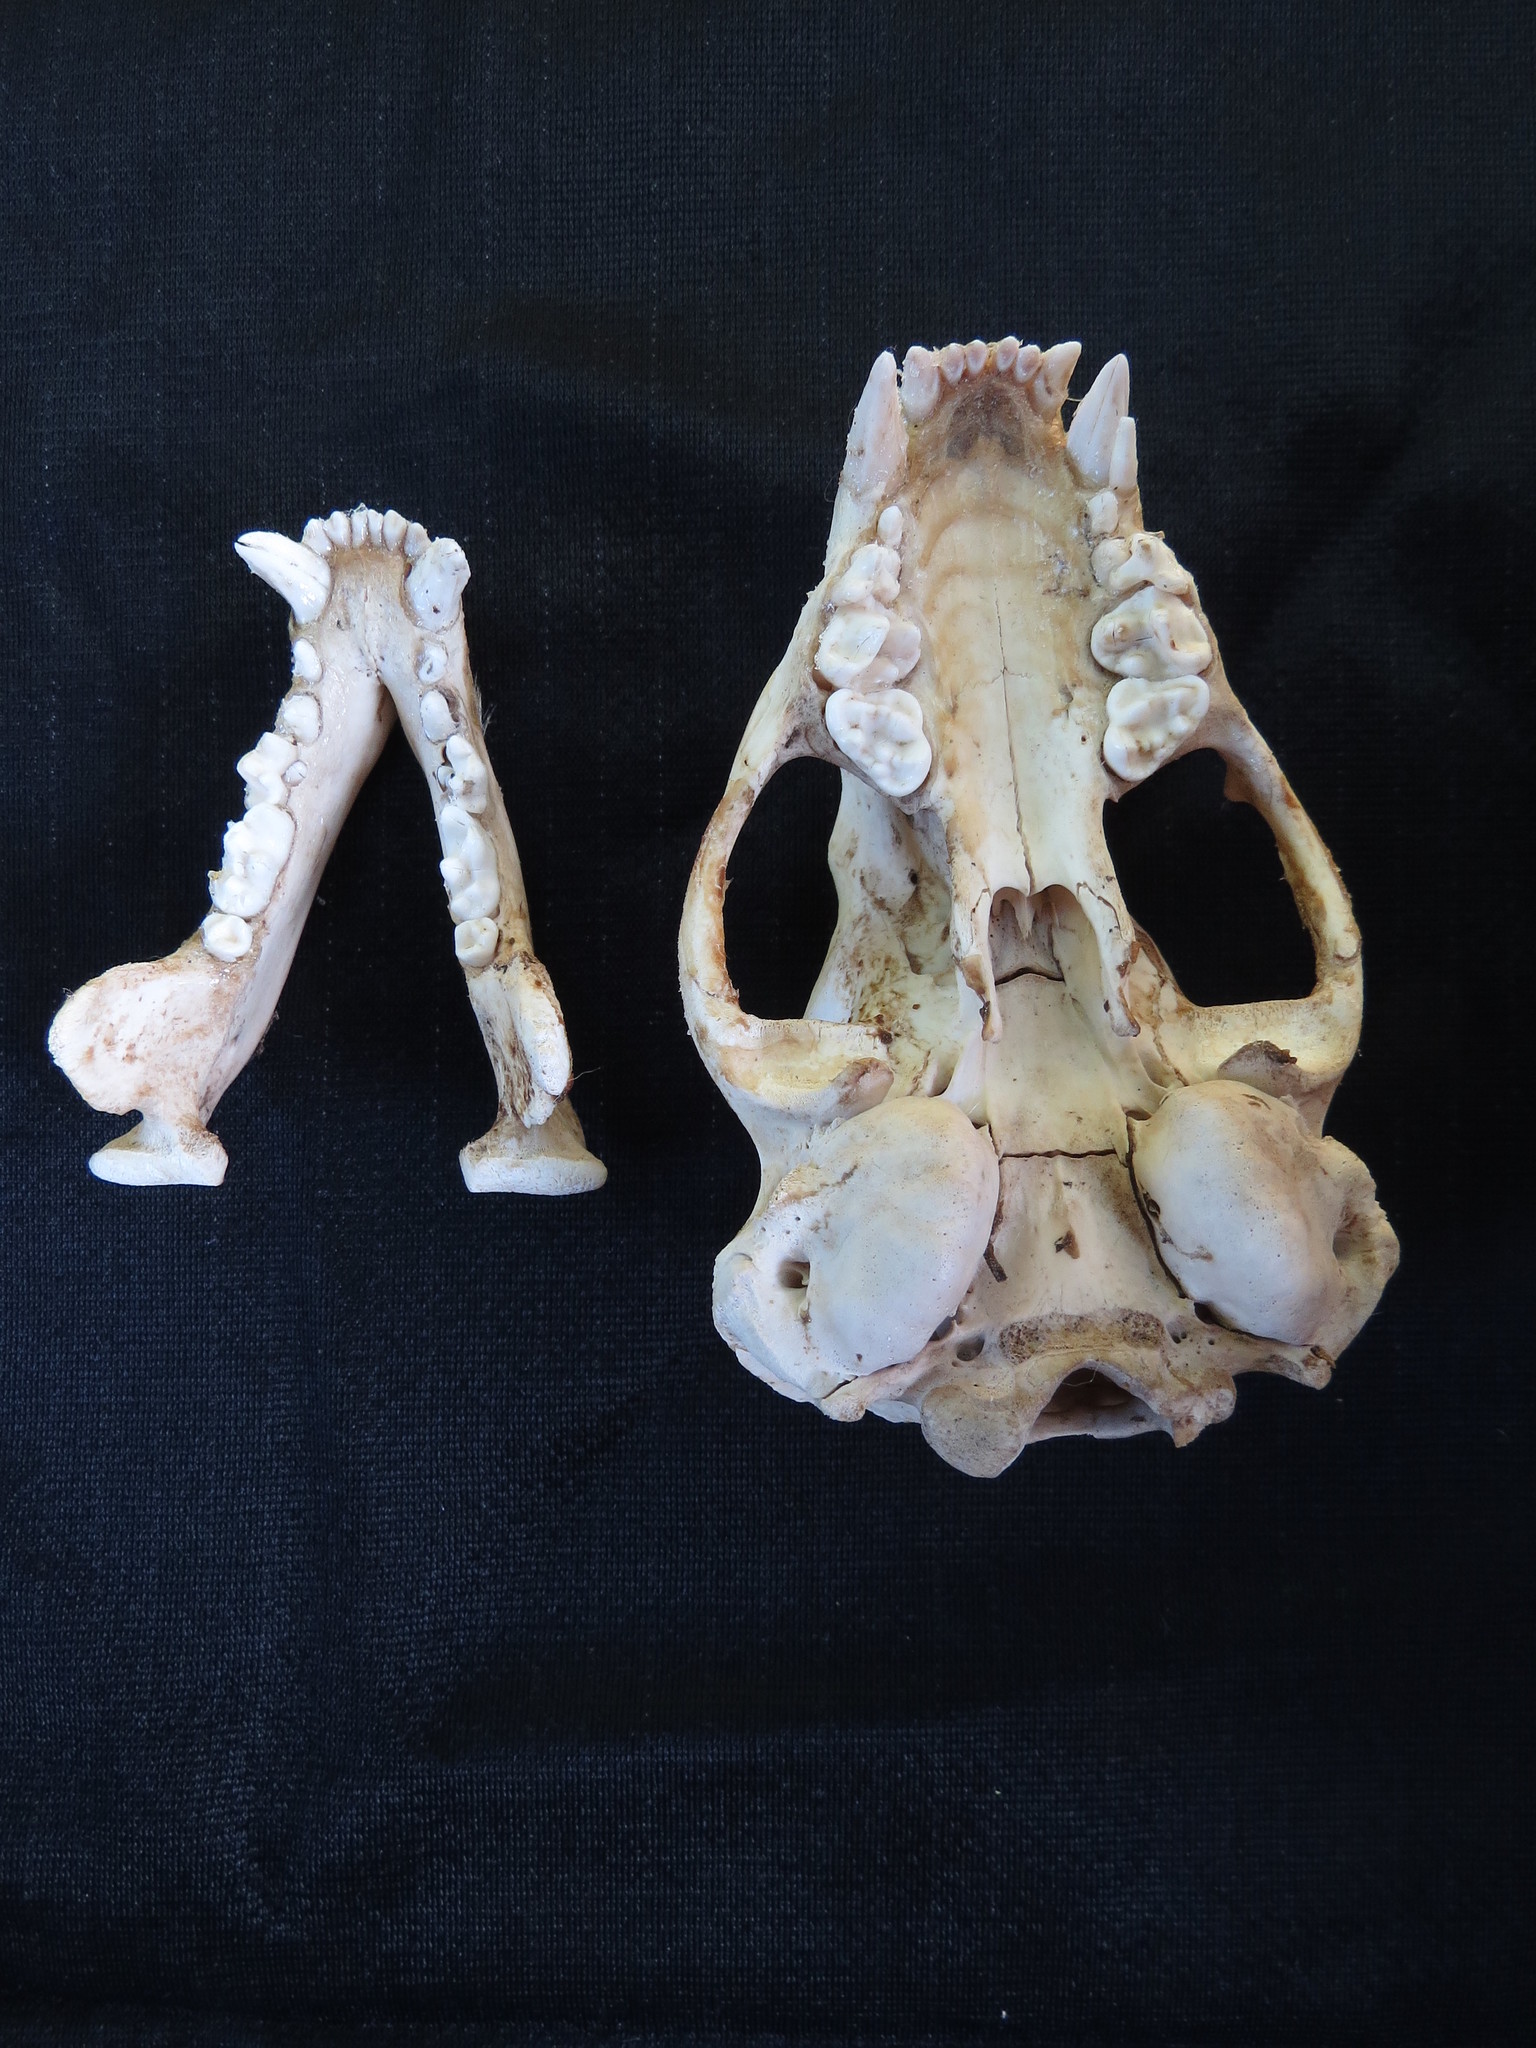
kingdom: Animalia
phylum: Chordata
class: Mammalia
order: Carnivora
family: Mustelidae
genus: Taxidea
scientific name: Taxidea taxus
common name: American badger
